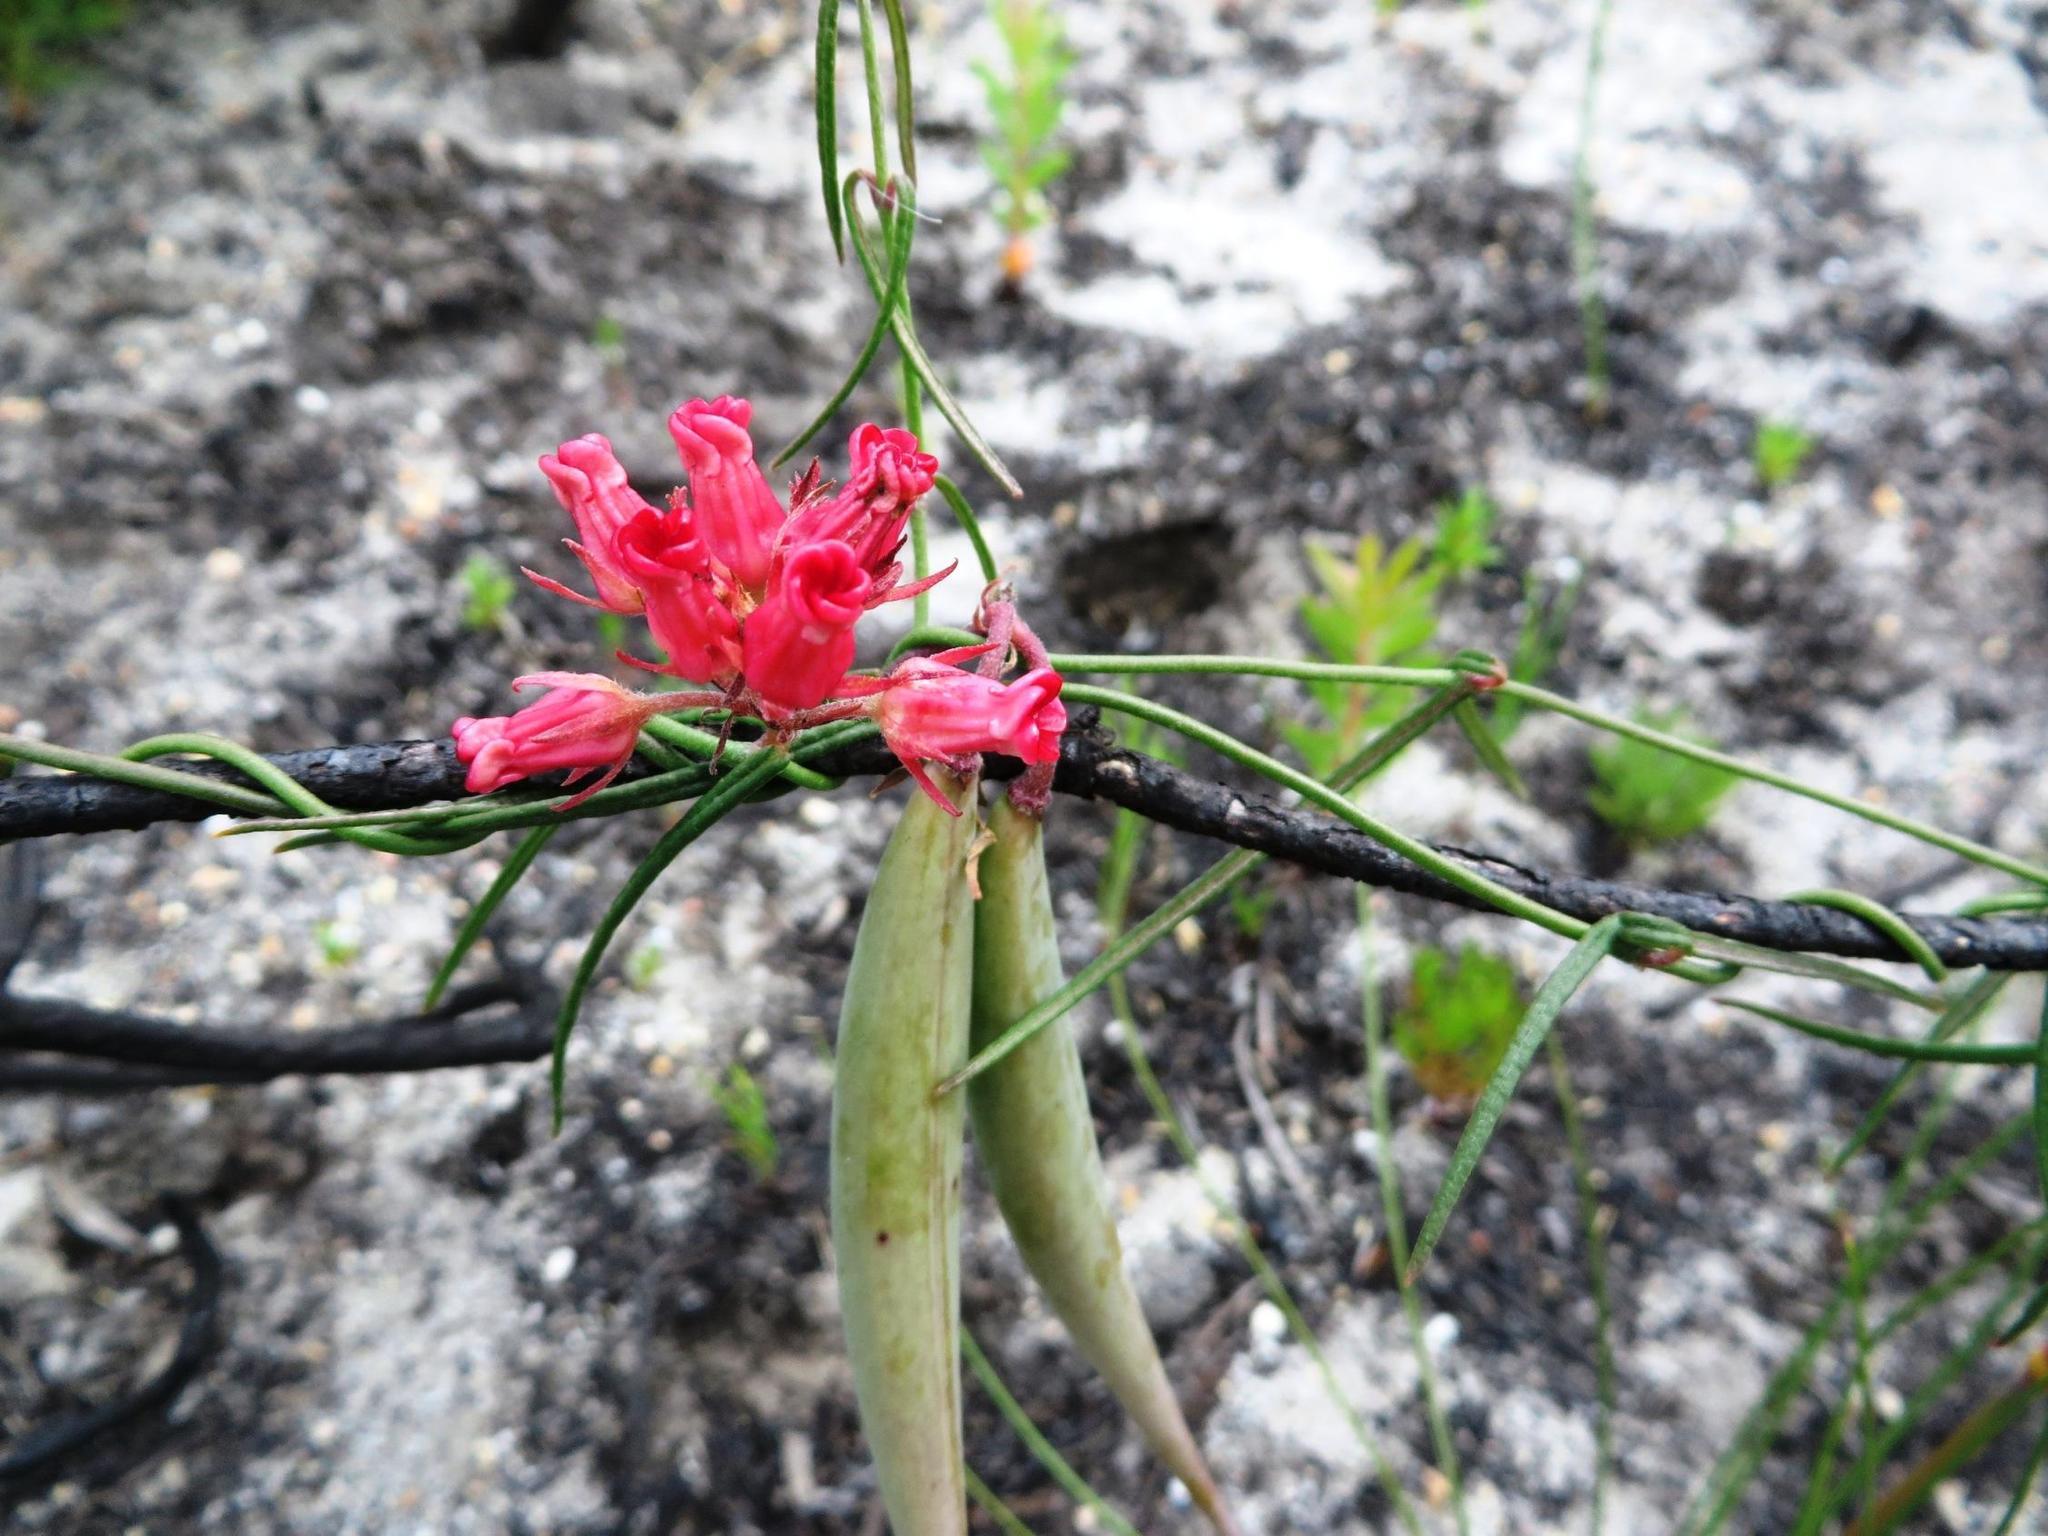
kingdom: Plantae
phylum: Tracheophyta
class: Magnoliopsida
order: Gentianales
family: Apocynaceae
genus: Microloma
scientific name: Microloma tenuifolium
